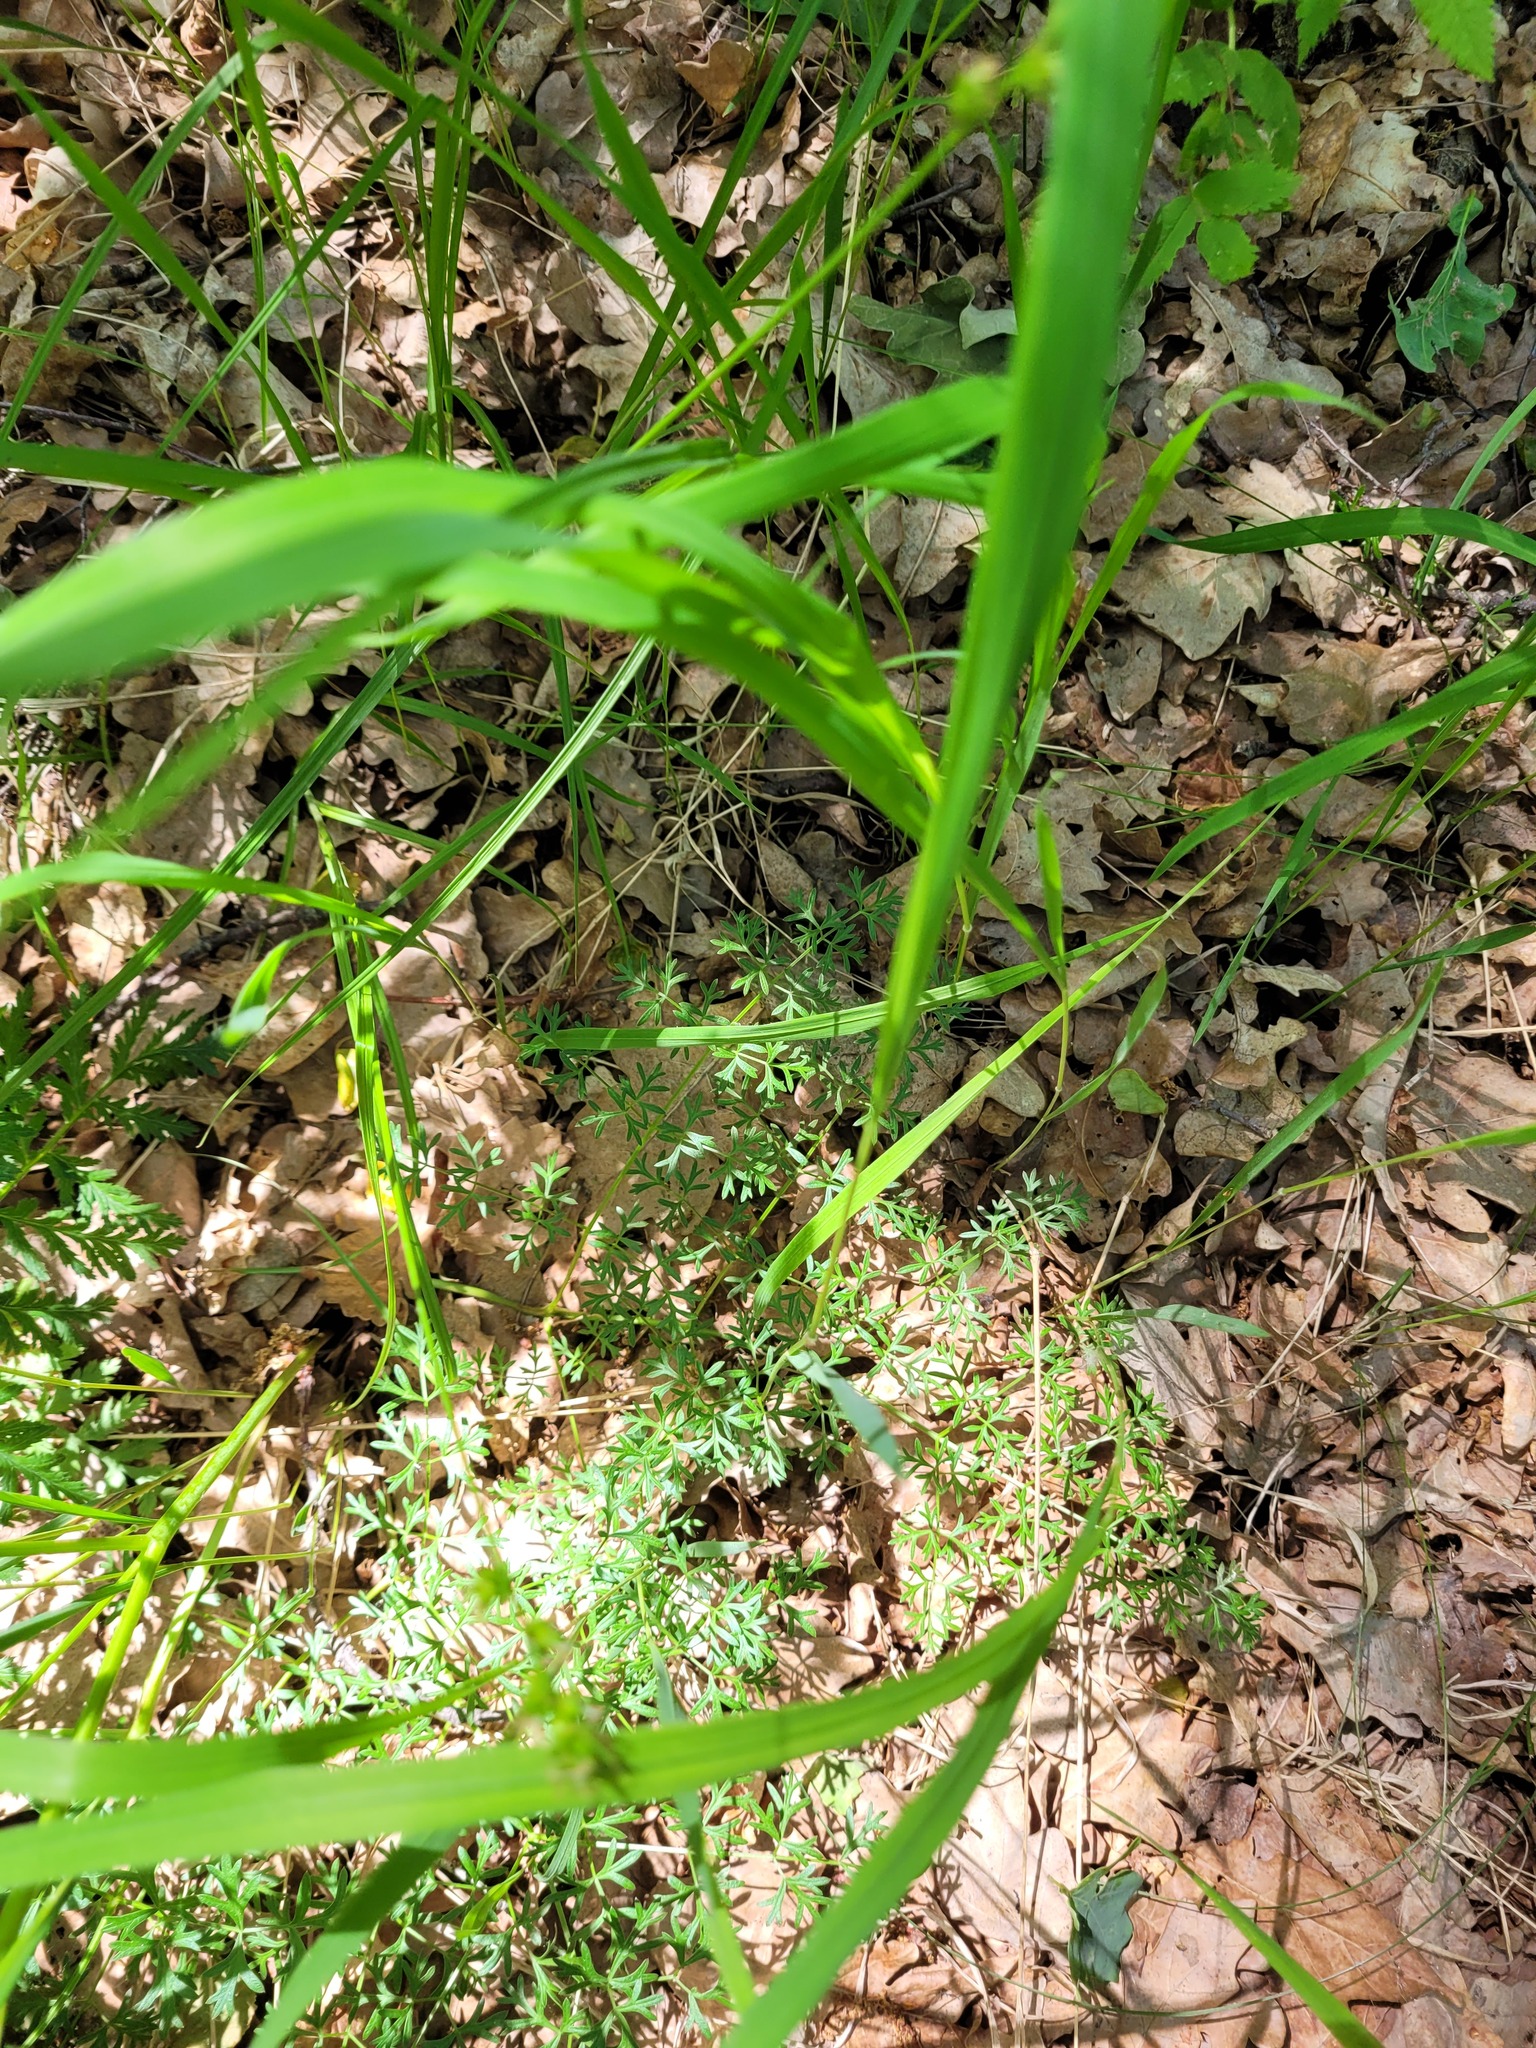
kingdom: Plantae
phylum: Tracheophyta
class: Magnoliopsida
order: Apiales
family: Apiaceae
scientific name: Apiaceae
